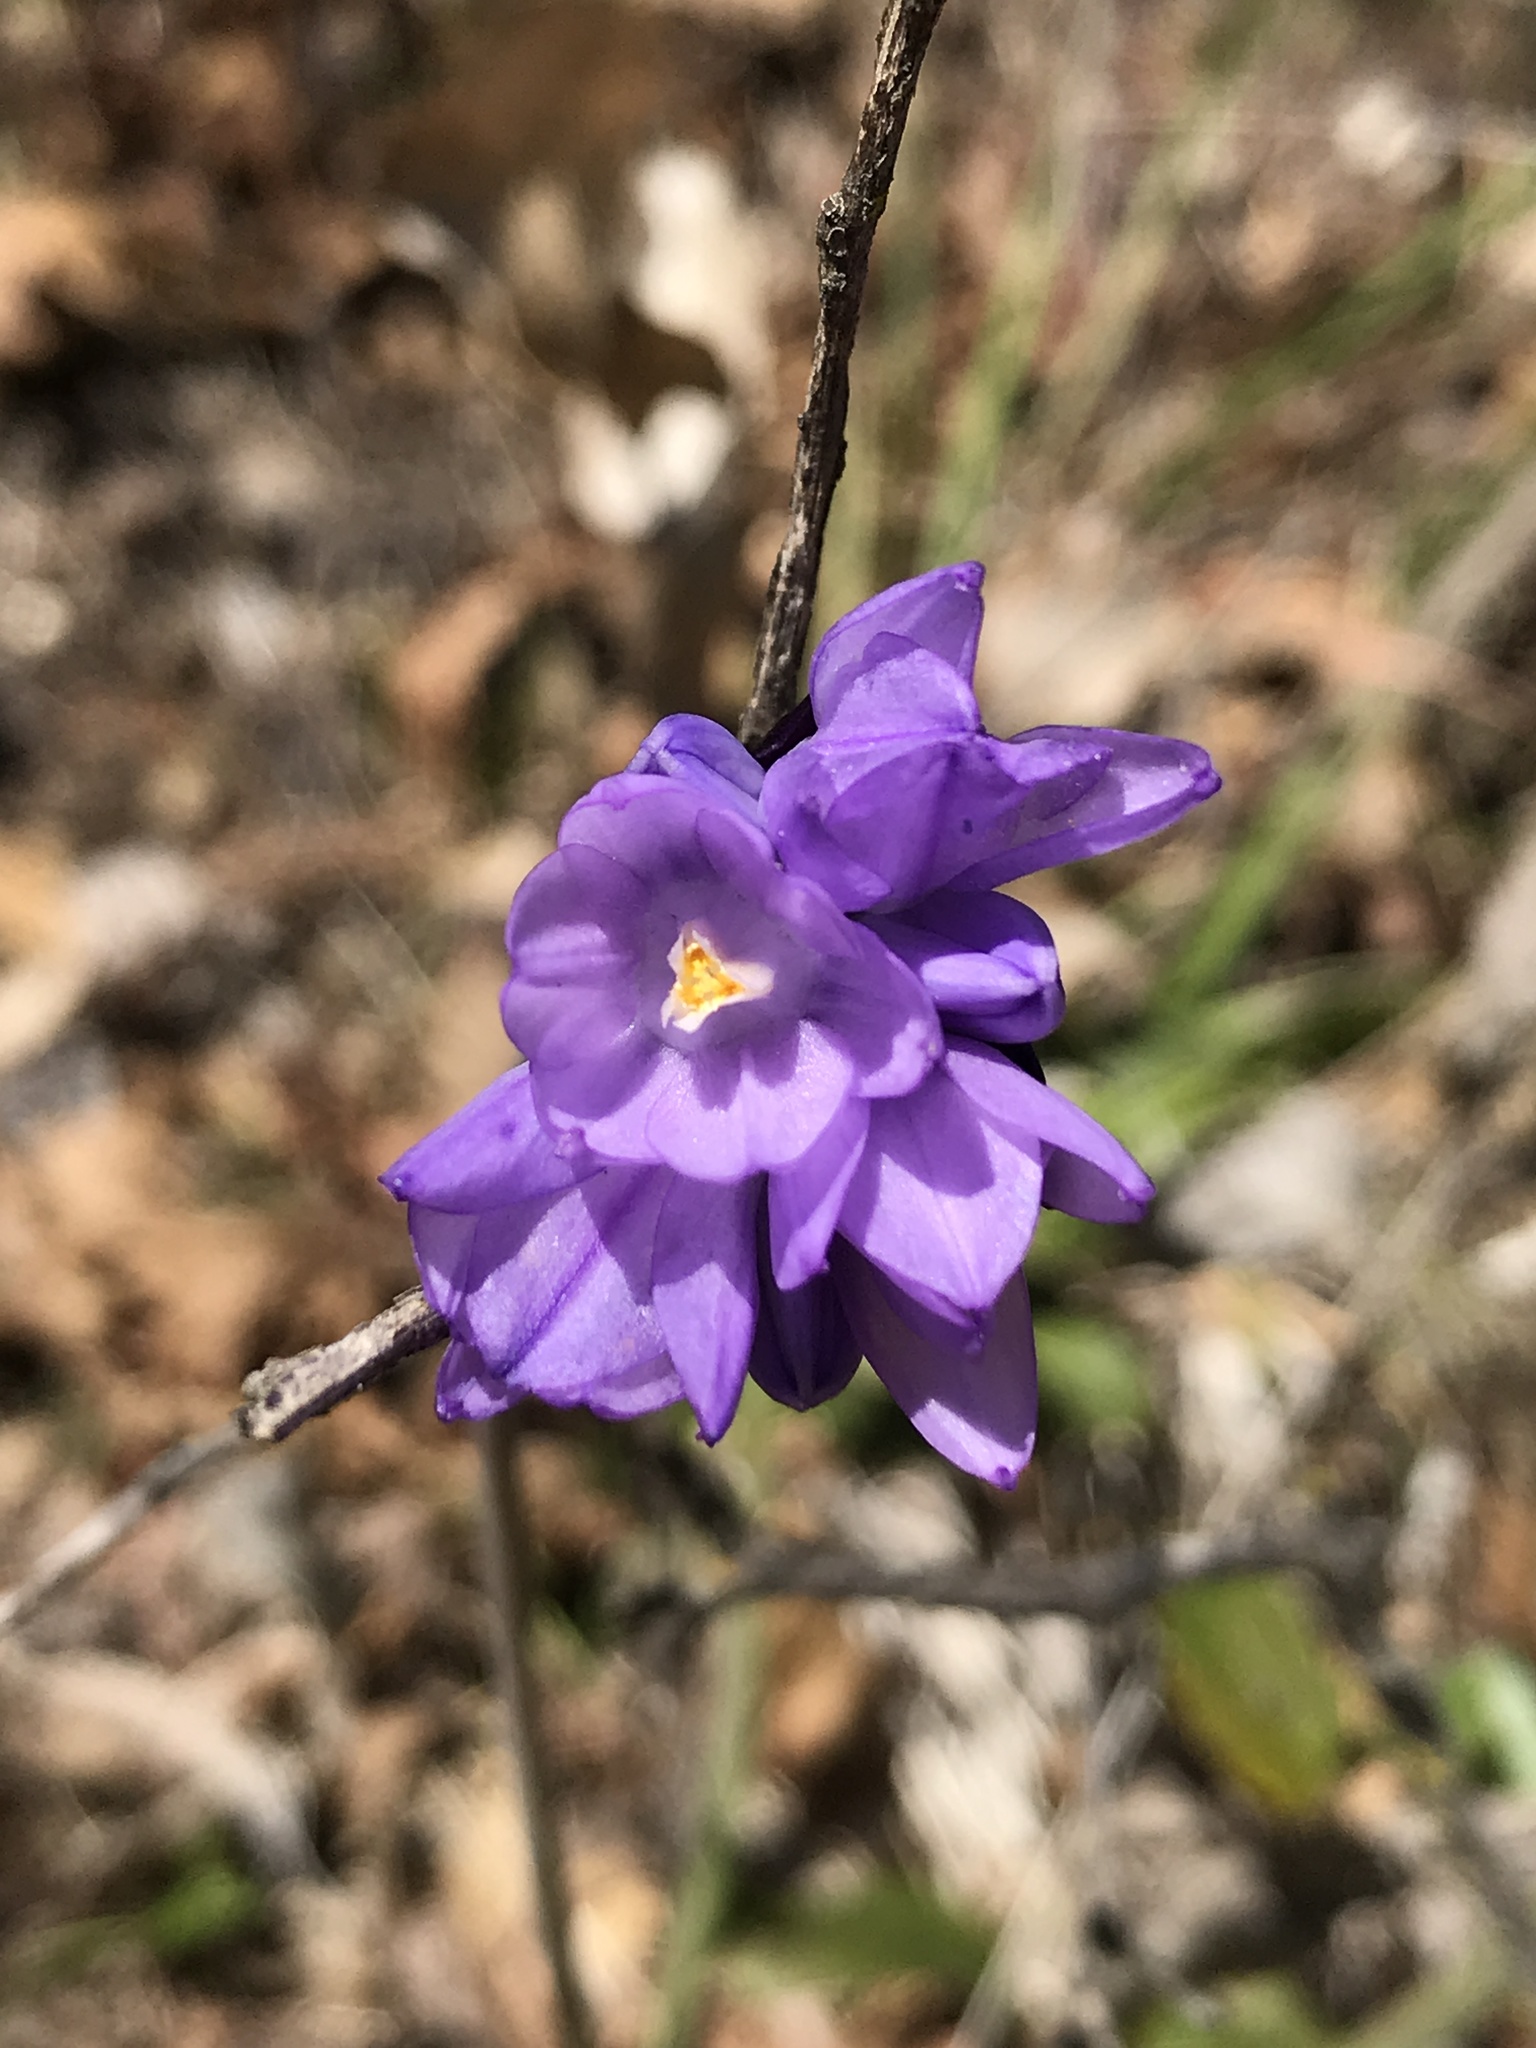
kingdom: Plantae
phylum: Tracheophyta
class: Liliopsida
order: Asparagales
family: Asparagaceae
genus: Dipterostemon
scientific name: Dipterostemon capitatus
